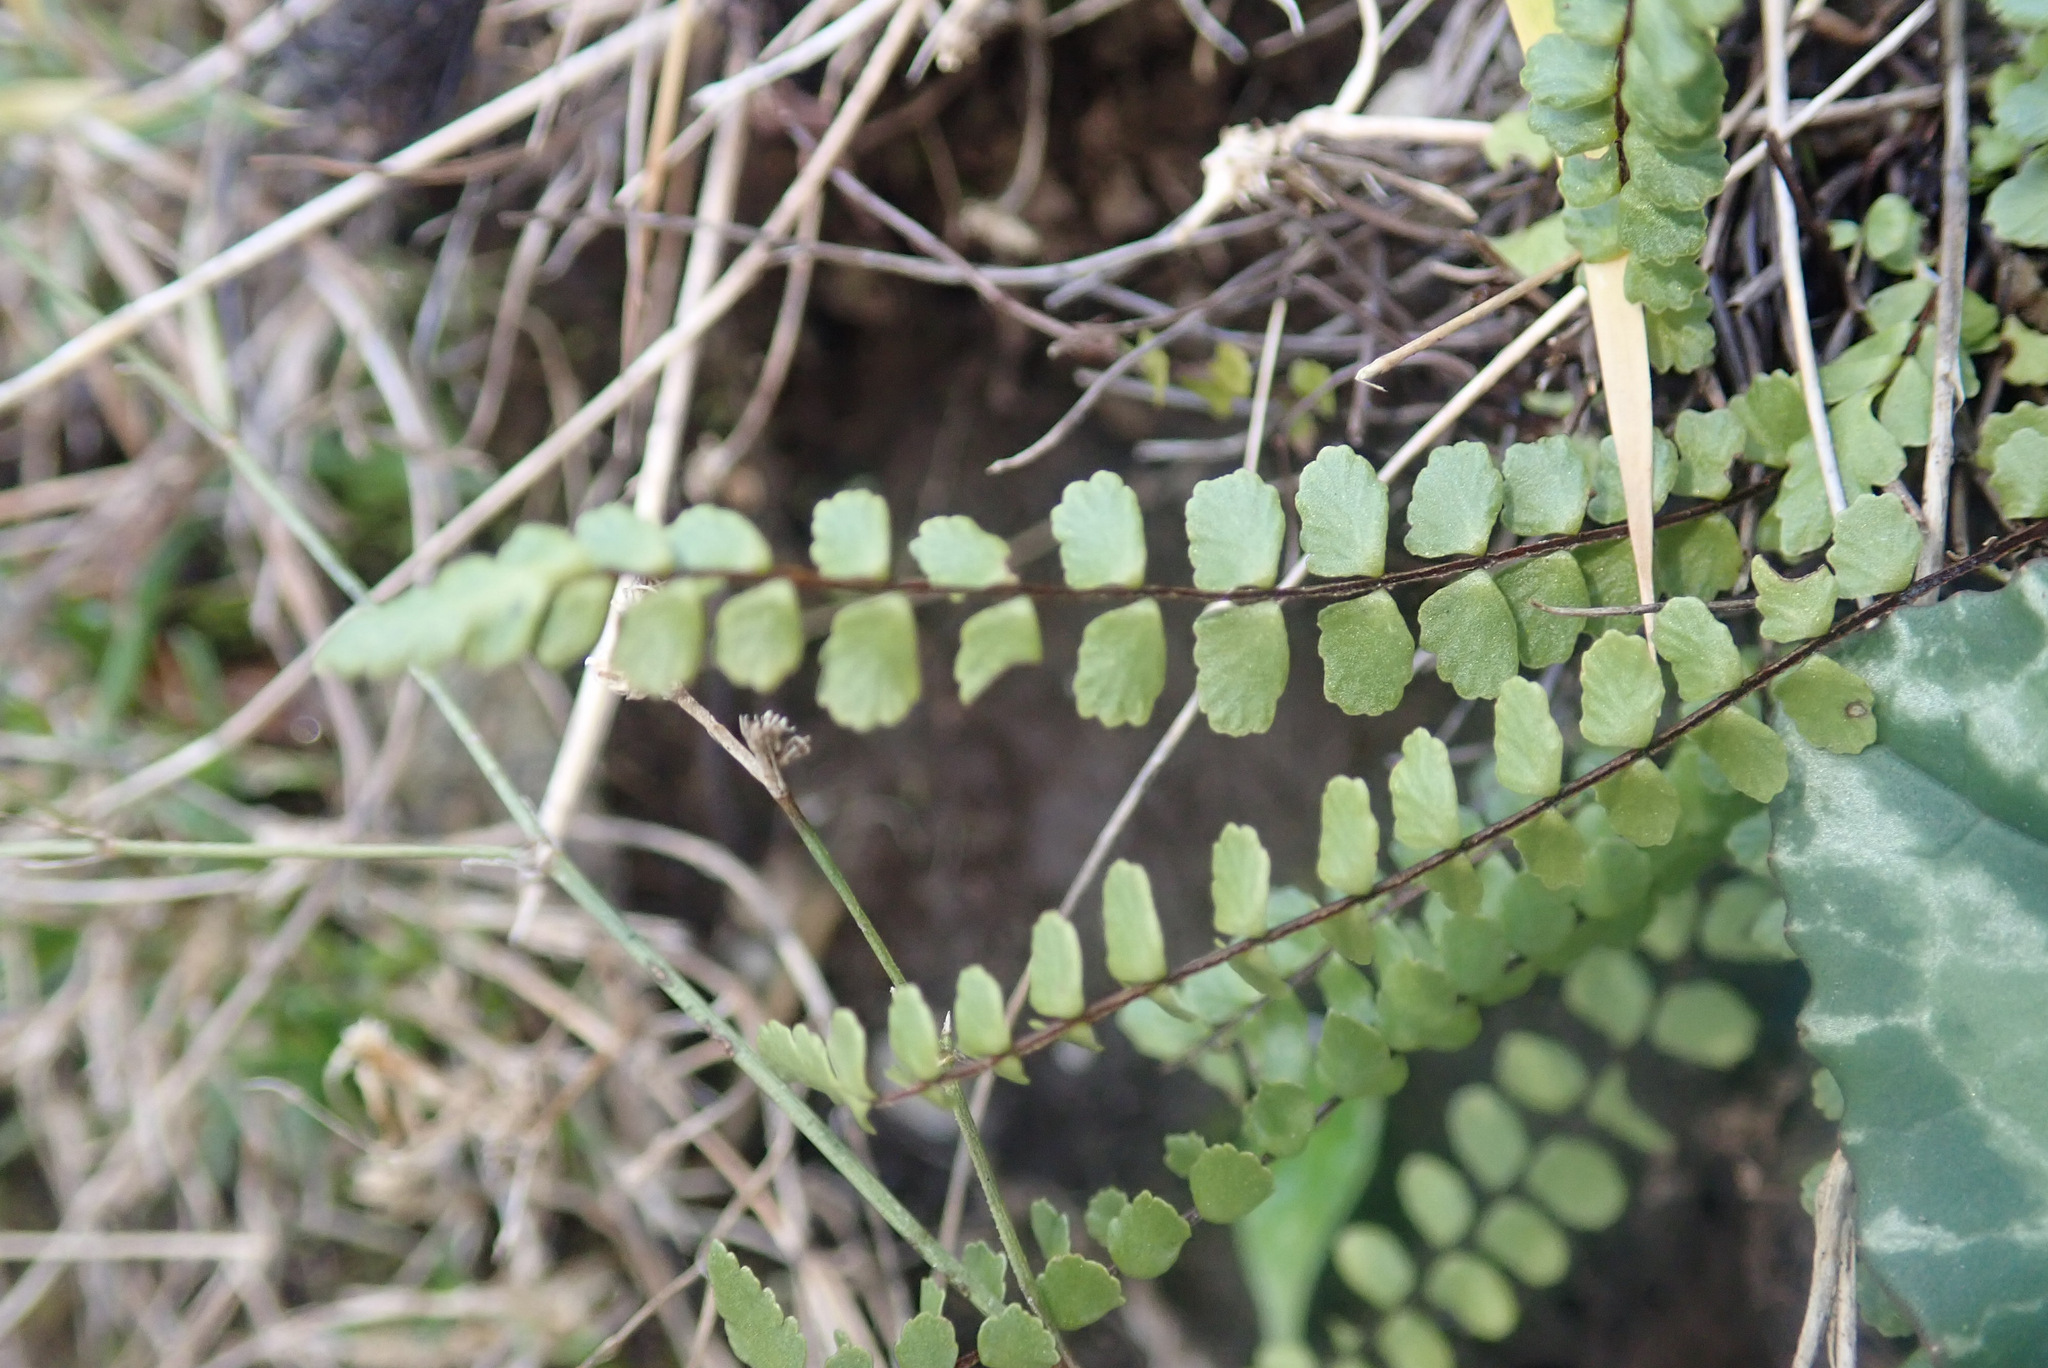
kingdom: Plantae
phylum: Tracheophyta
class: Polypodiopsida
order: Polypodiales
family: Aspleniaceae
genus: Asplenium
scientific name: Asplenium trichomanes
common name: Maidenhair spleenwort
